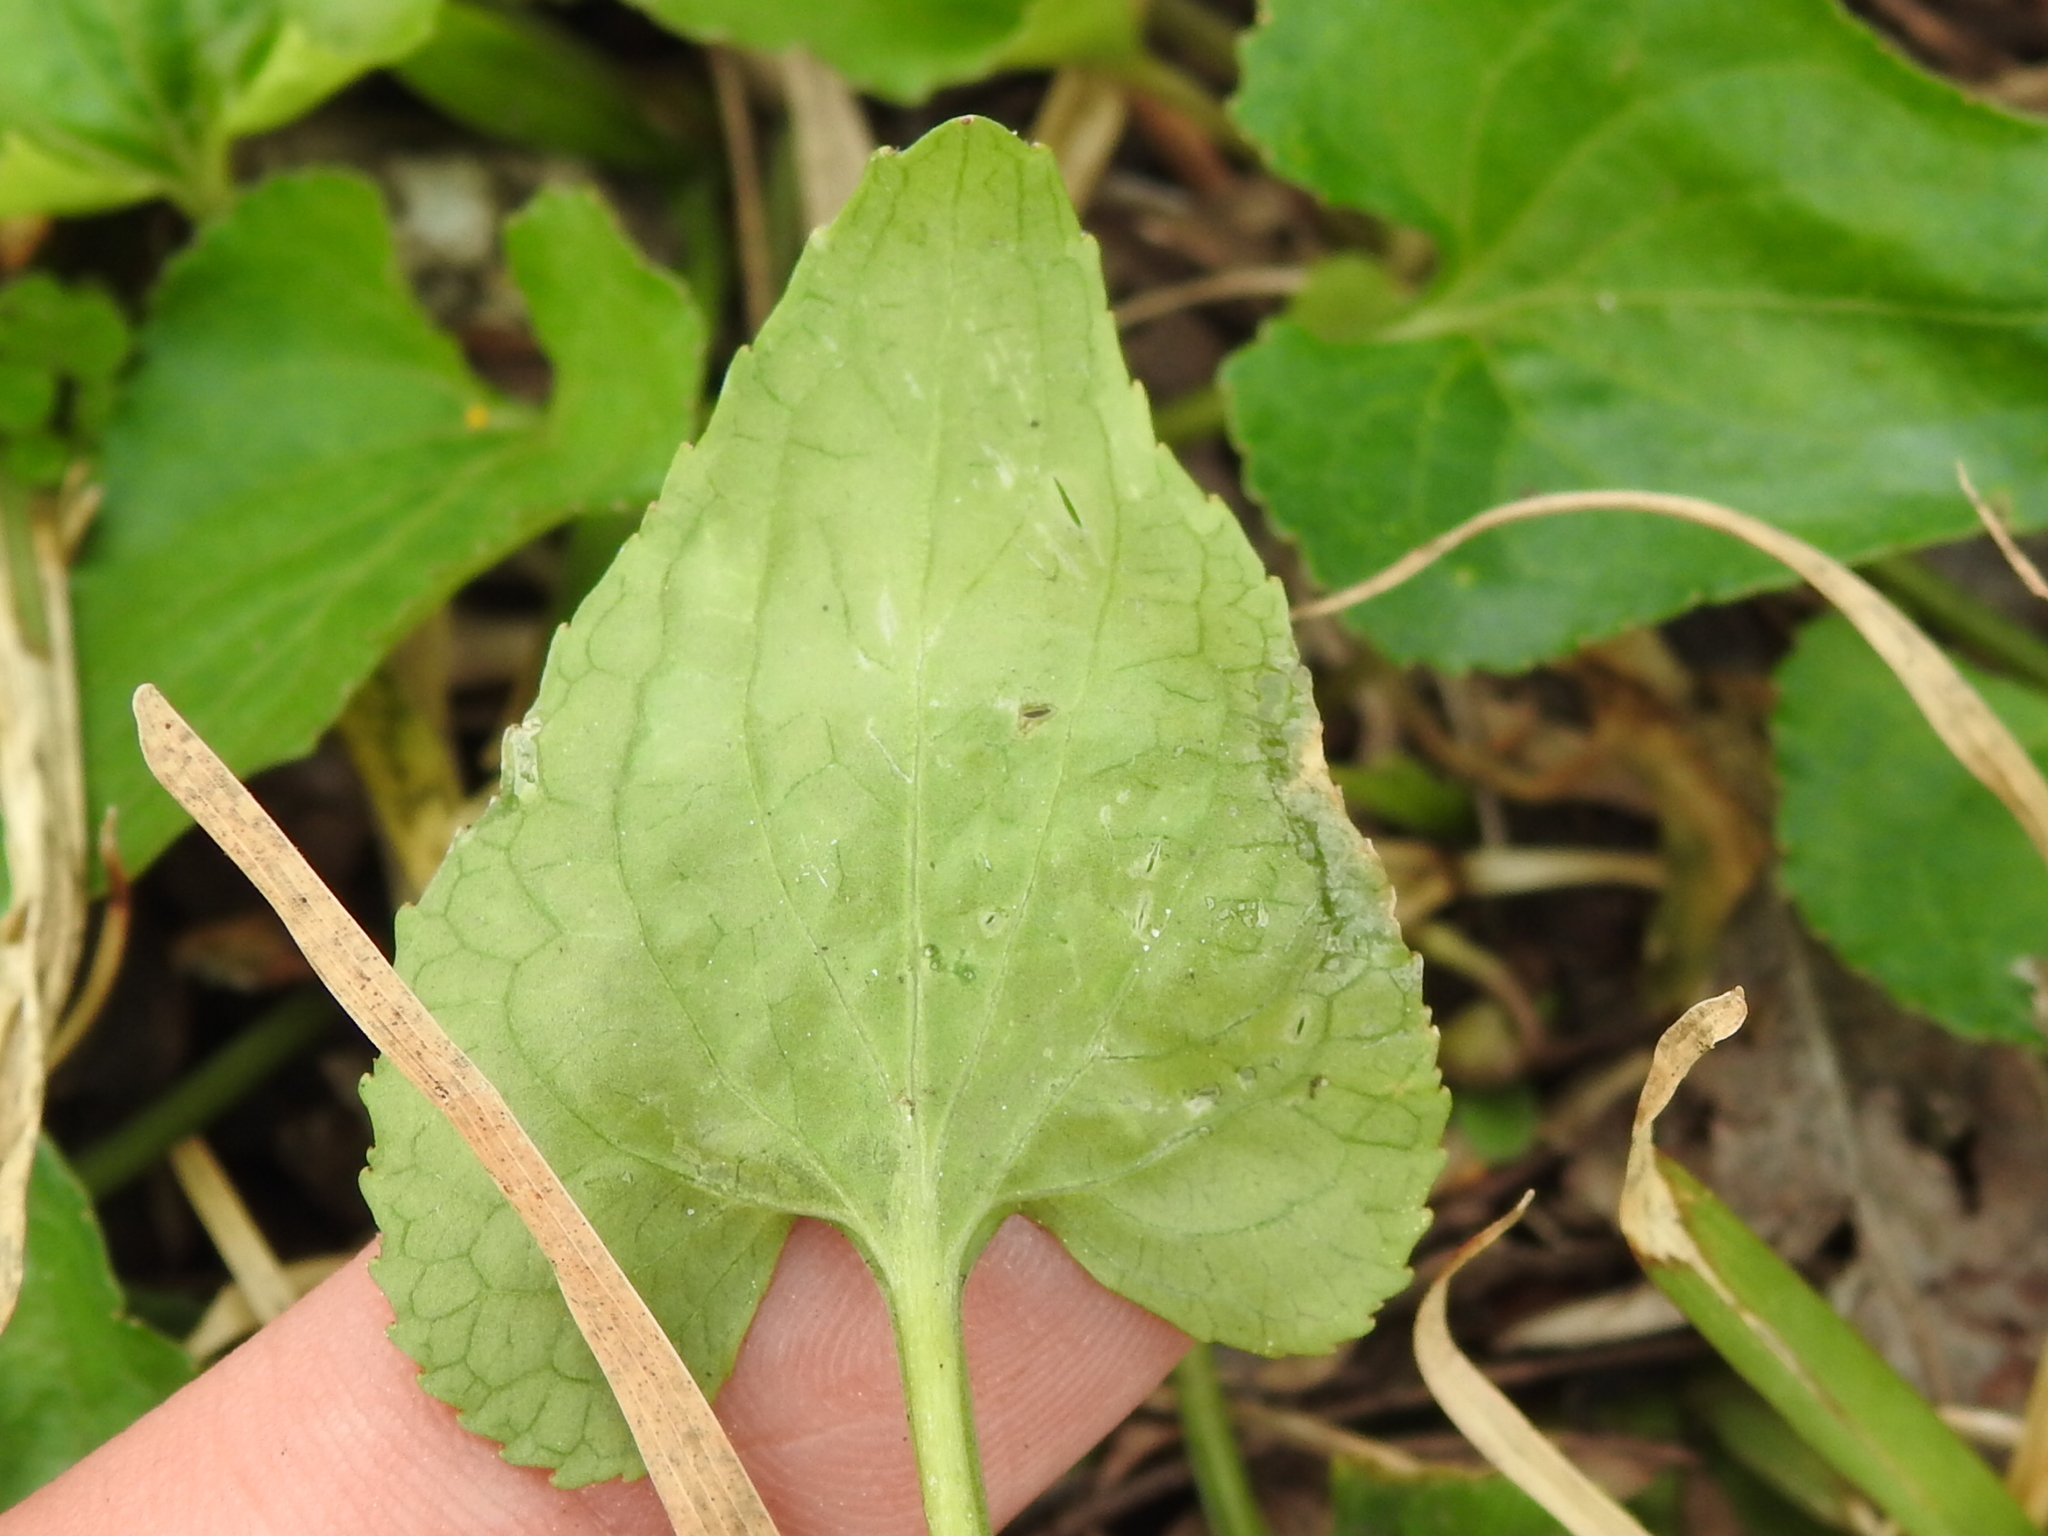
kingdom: Plantae
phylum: Tracheophyta
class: Magnoliopsida
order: Malpighiales
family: Violaceae
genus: Viola
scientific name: Viola missouriensis
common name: Missouri violet
